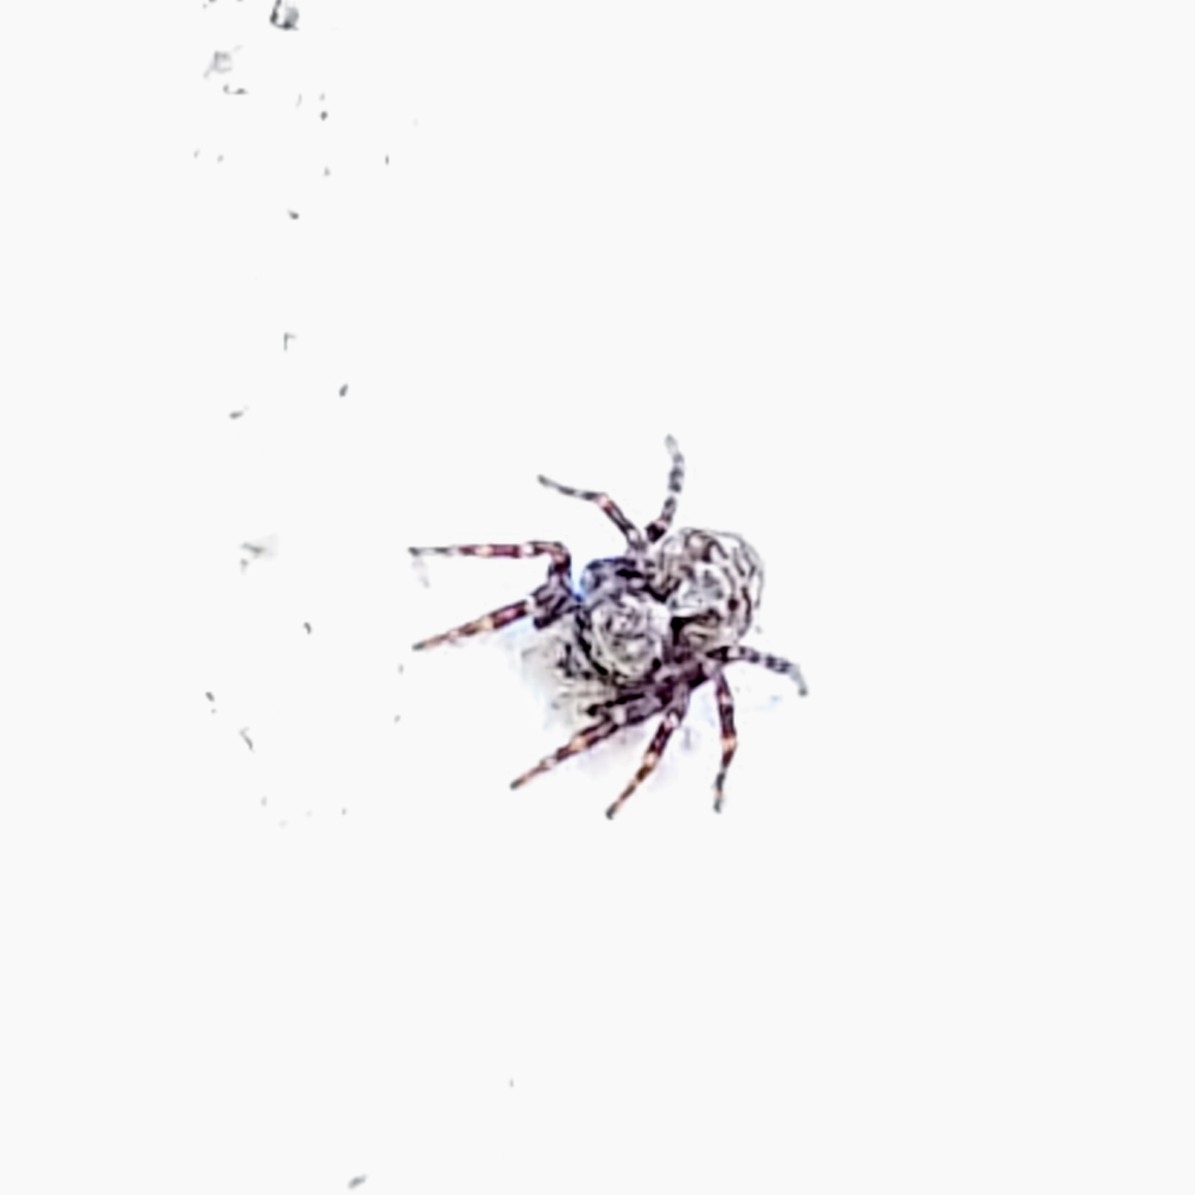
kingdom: Animalia
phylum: Arthropoda
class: Arachnida
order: Araneae
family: Salticidae
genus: Pseudeuophrys
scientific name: Pseudeuophrys lanigera
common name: Jumping spider
